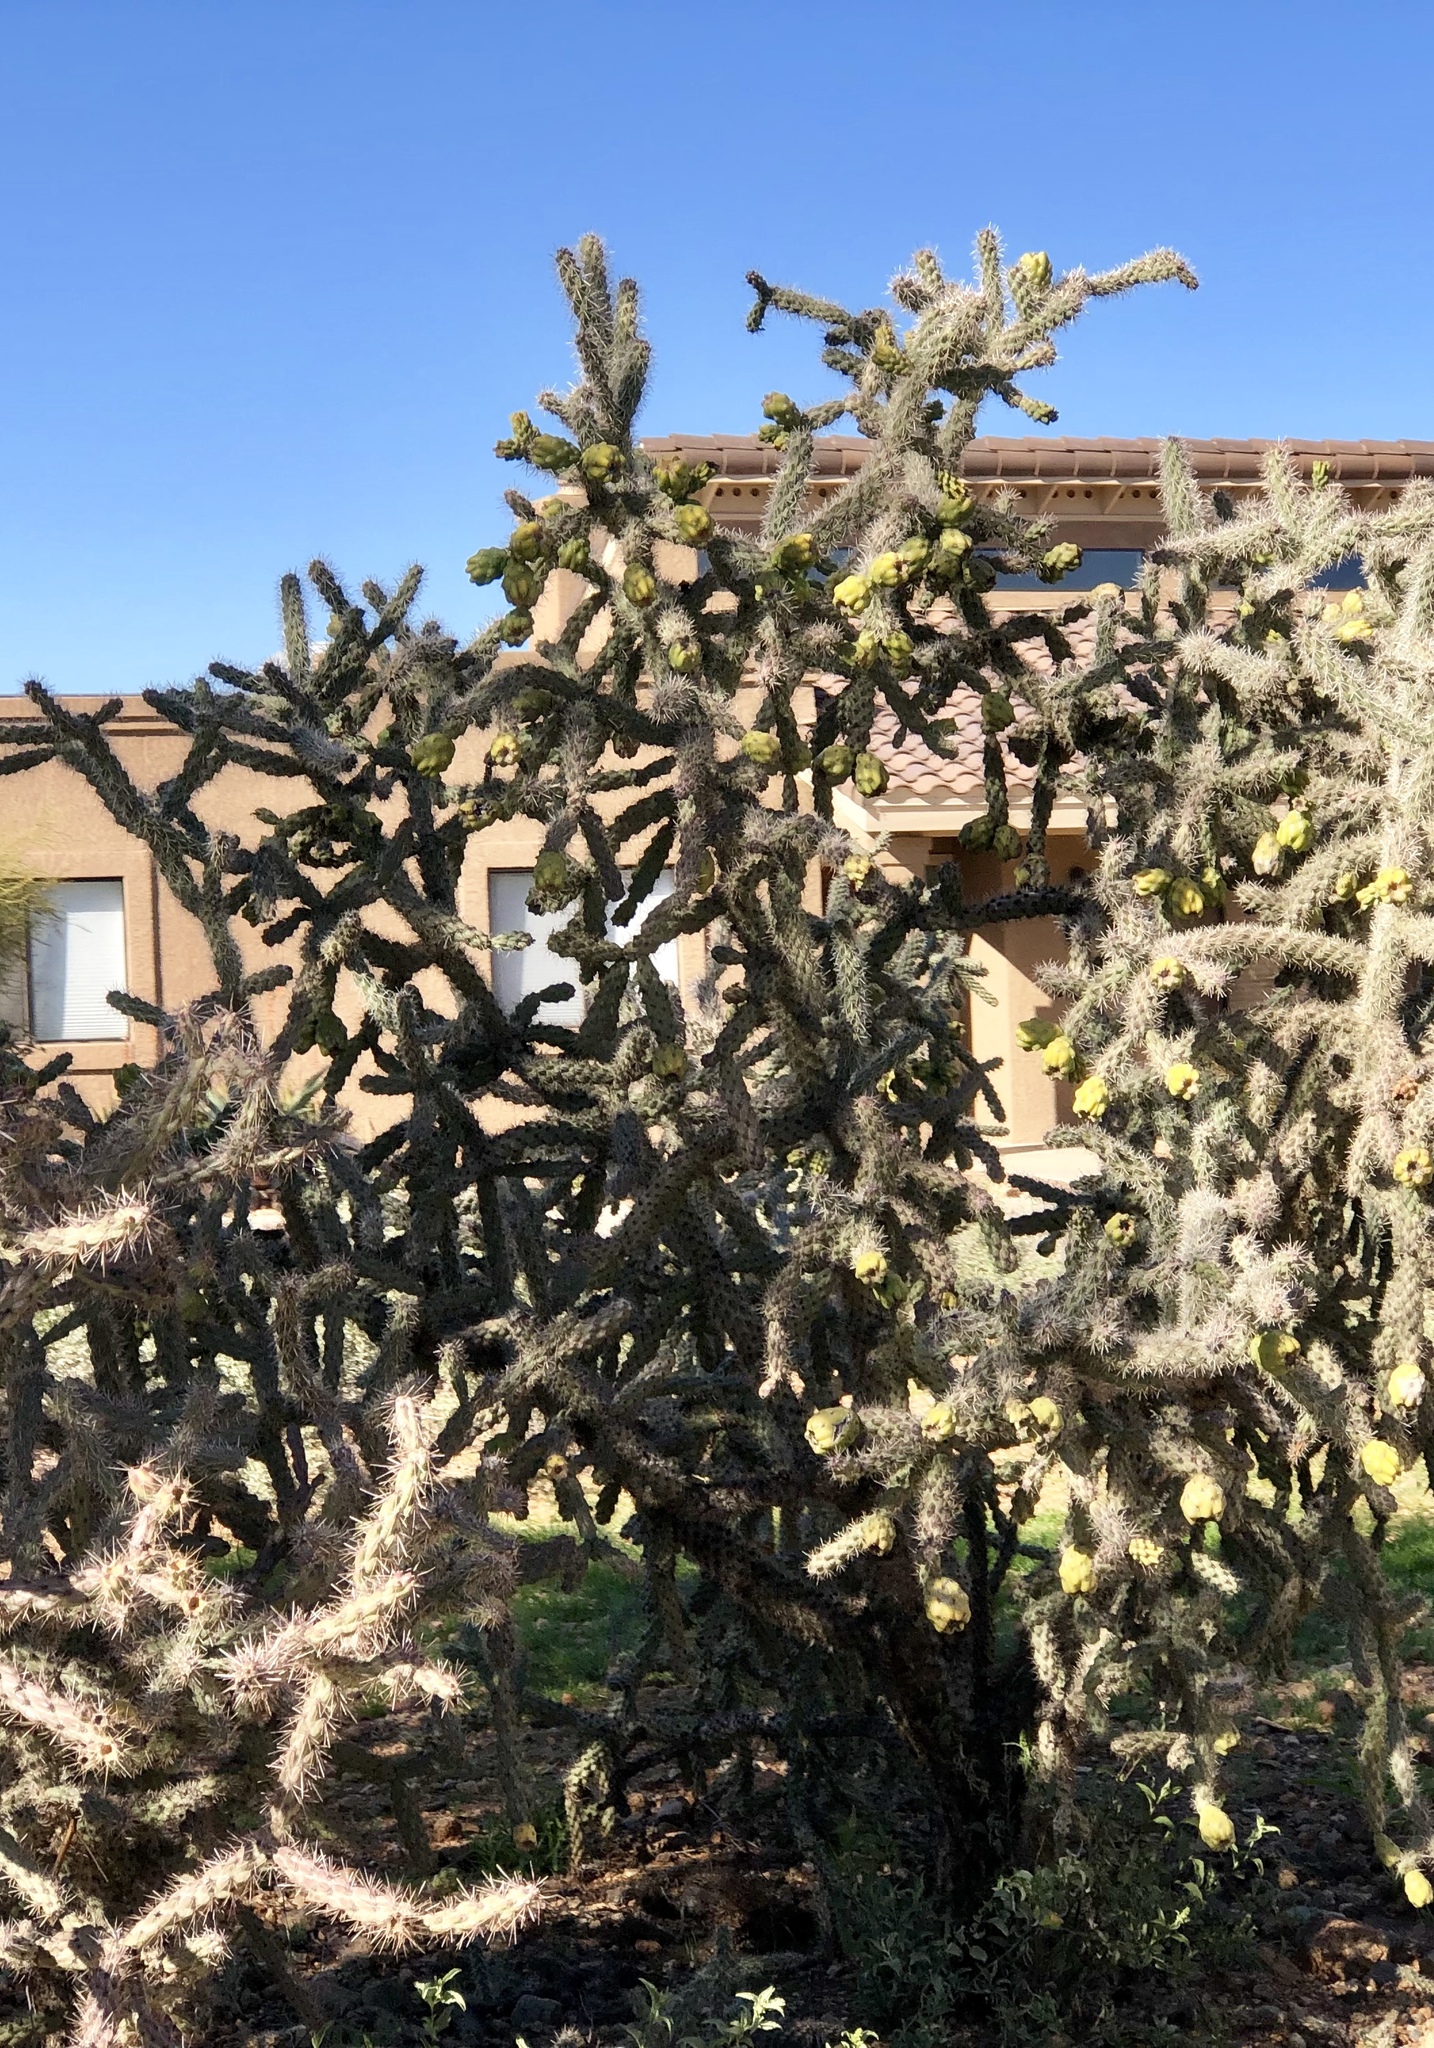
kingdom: Plantae
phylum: Tracheophyta
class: Magnoliopsida
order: Caryophyllales
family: Cactaceae
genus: Cylindropuntia
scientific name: Cylindropuntia imbricata
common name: Candelabrum cactus
